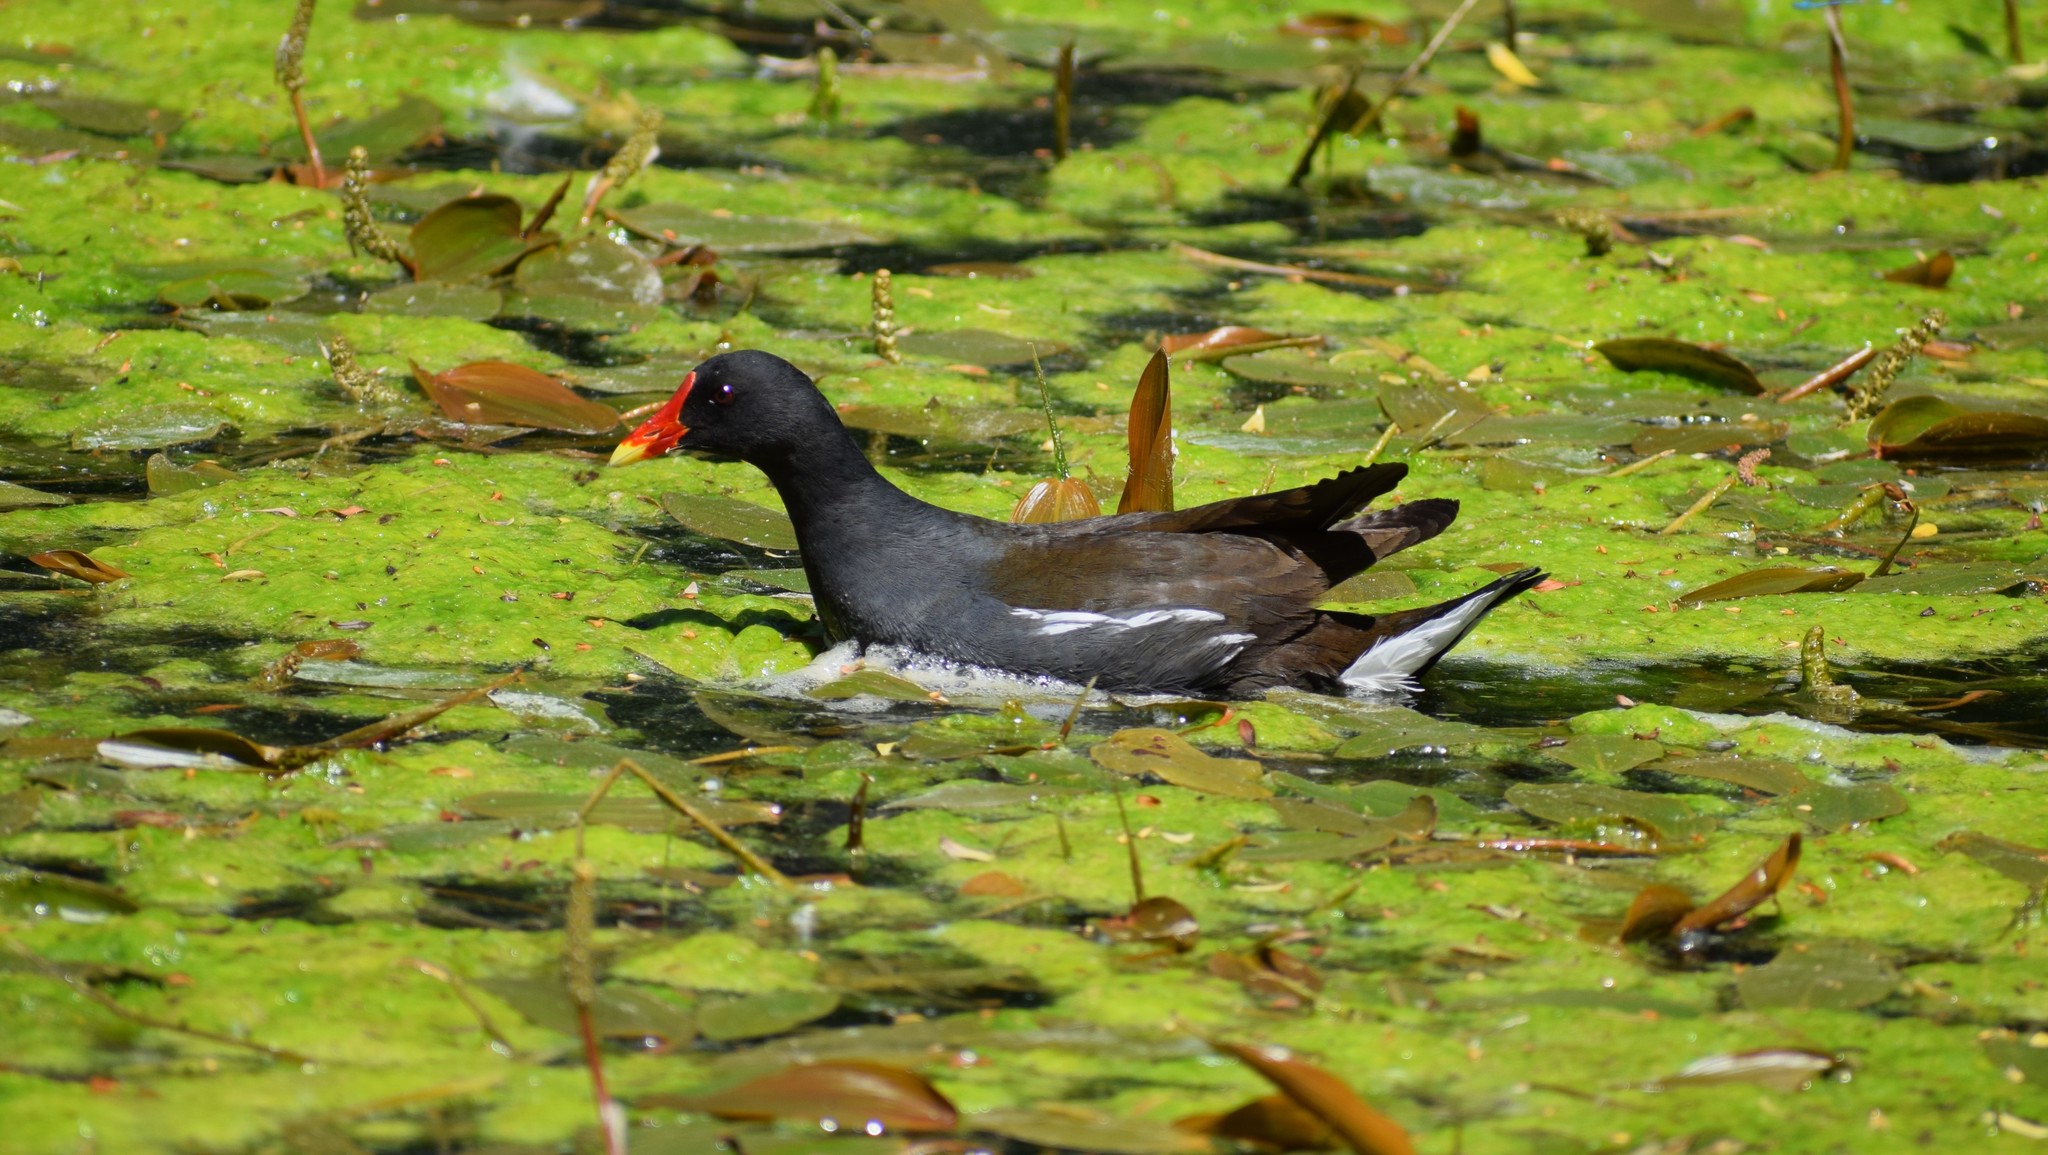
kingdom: Animalia
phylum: Chordata
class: Aves
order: Gruiformes
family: Rallidae
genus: Gallinula
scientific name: Gallinula chloropus
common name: Common moorhen
